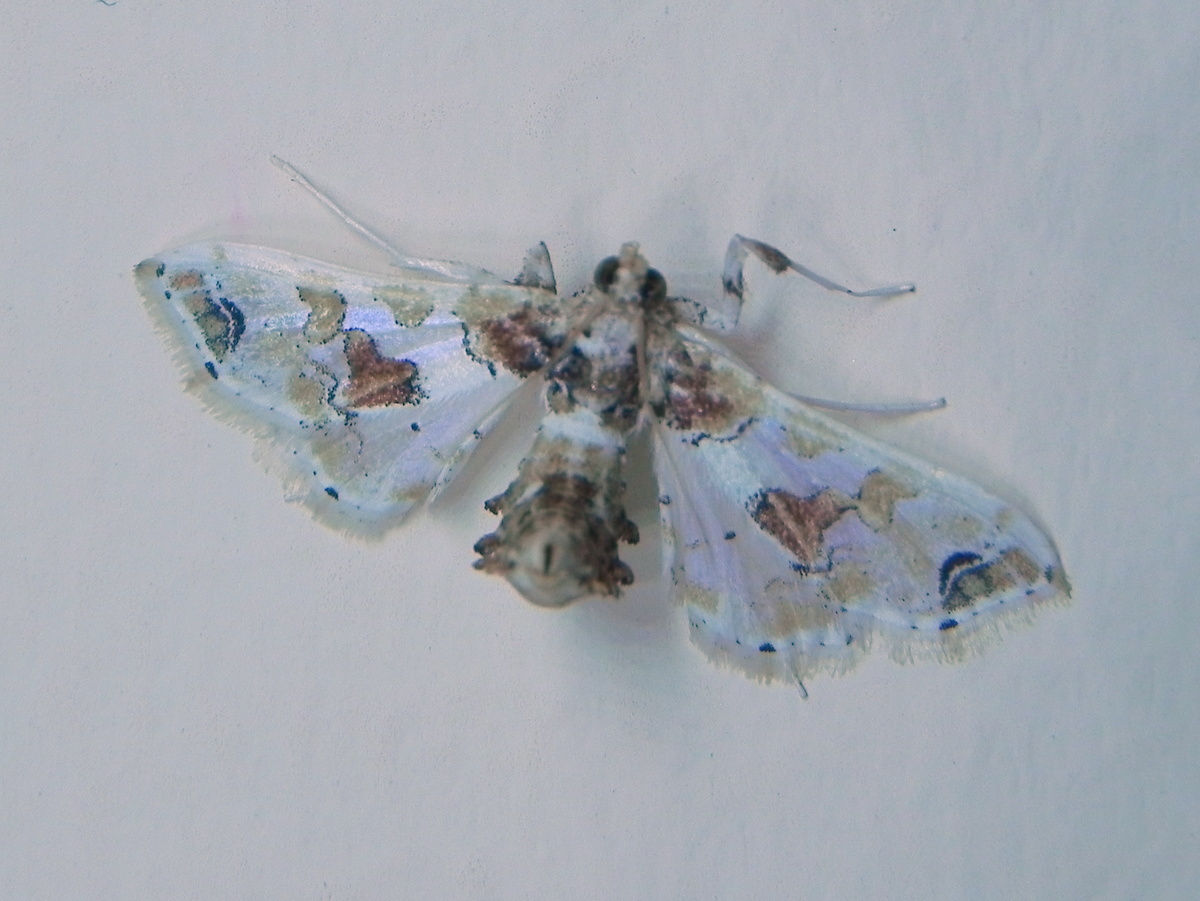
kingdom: Animalia
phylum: Arthropoda
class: Insecta
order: Lepidoptera
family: Crambidae
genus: Leucinodes
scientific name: Leucinodes orbonalis
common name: Aubergine pearl
